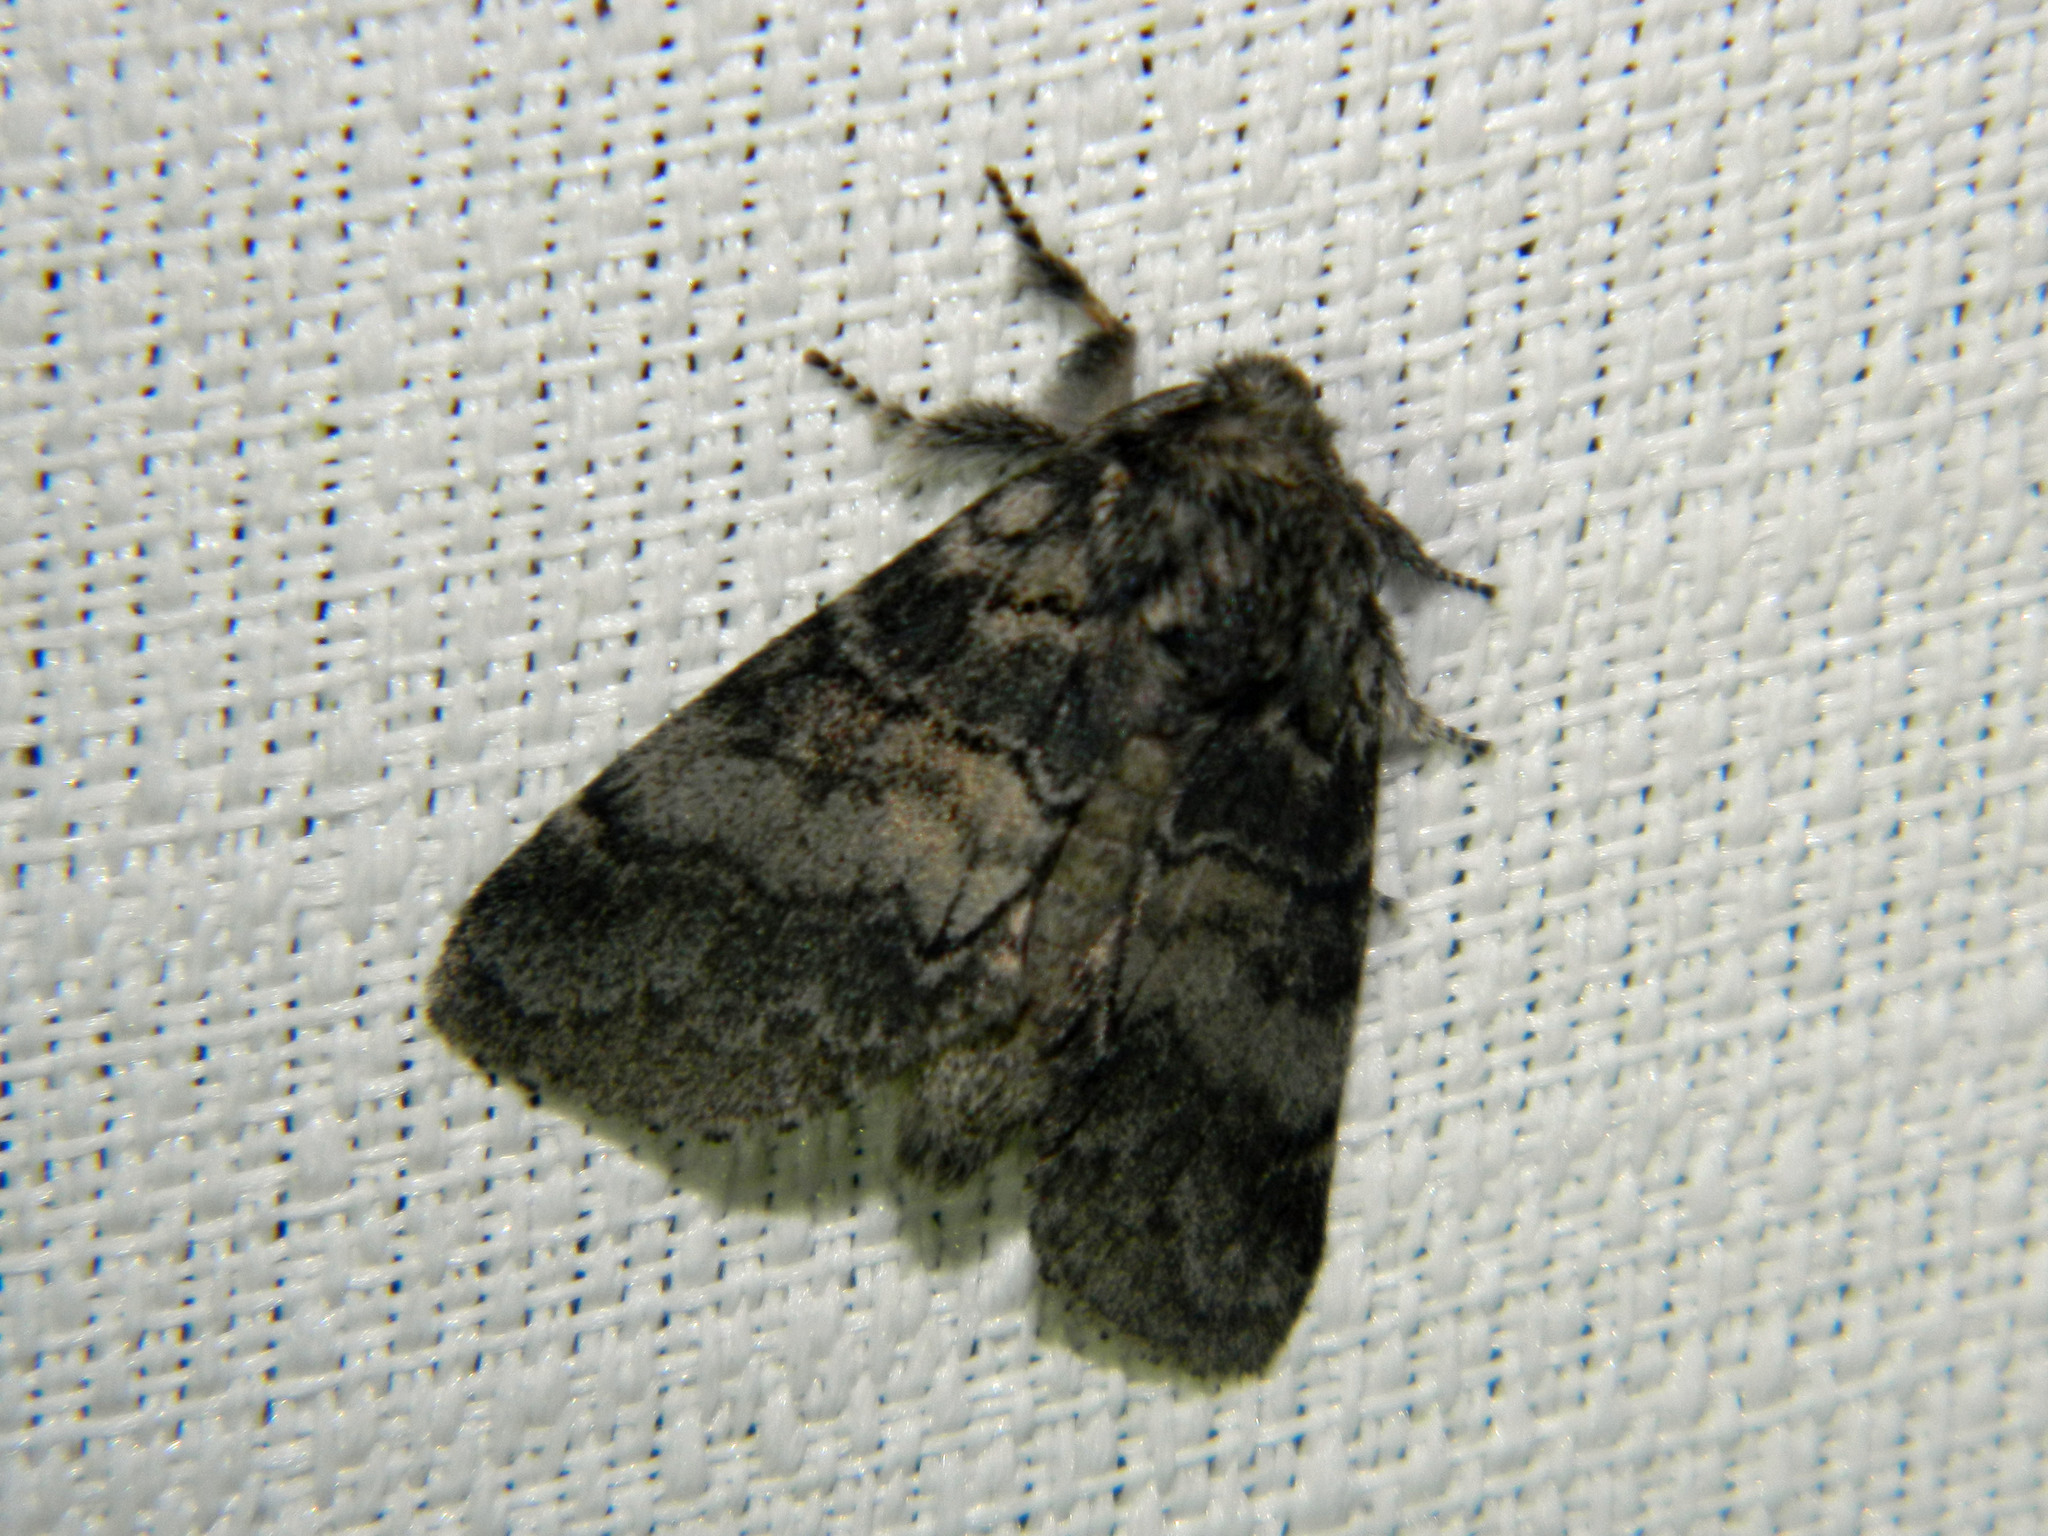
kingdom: Animalia
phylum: Arthropoda
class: Insecta
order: Lepidoptera
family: Notodontidae
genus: Gluphisia
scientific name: Gluphisia septentrionis
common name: Common gluphisia
